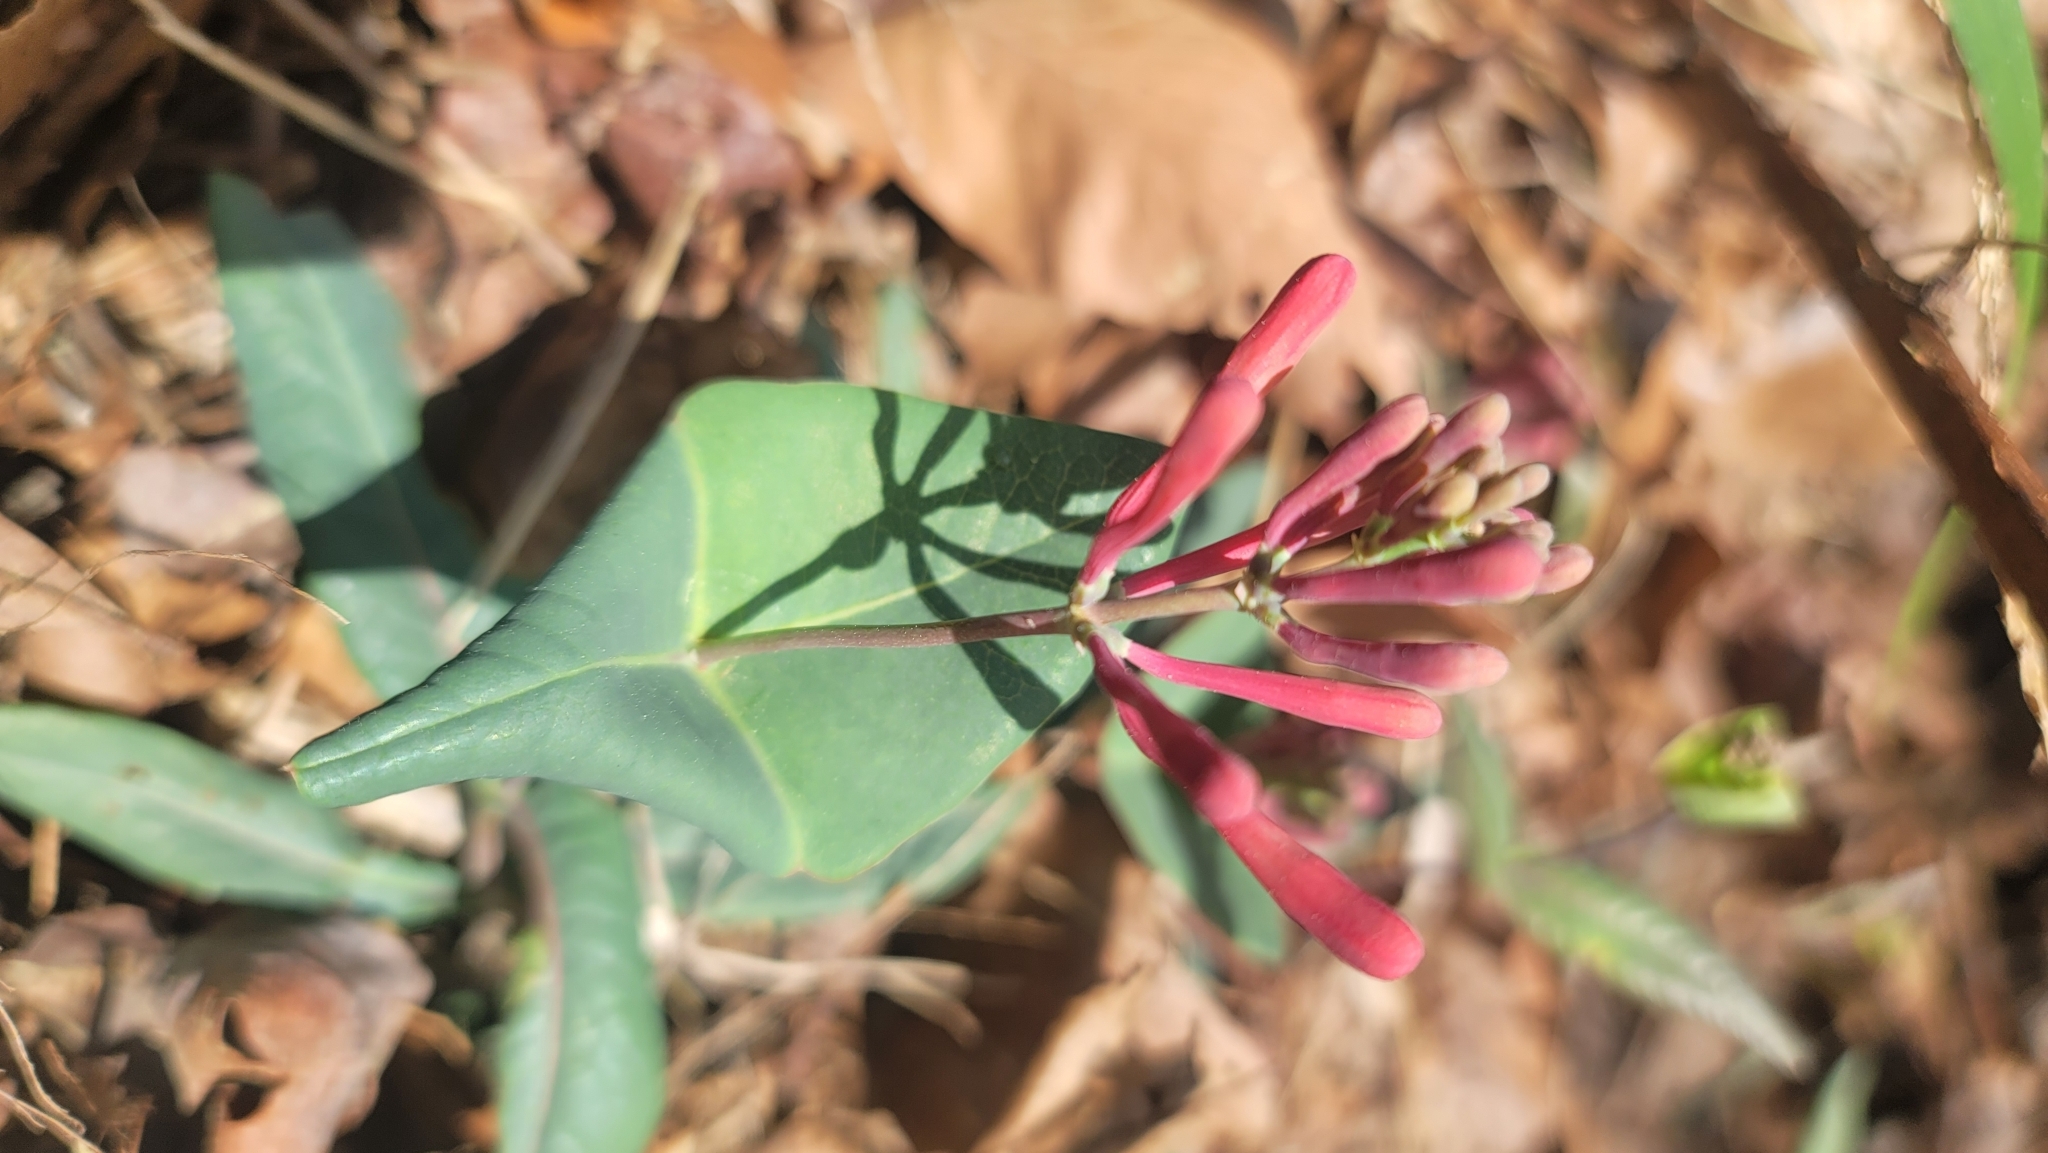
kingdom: Plantae
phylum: Tracheophyta
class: Magnoliopsida
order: Dipsacales
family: Caprifoliaceae
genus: Lonicera
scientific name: Lonicera sempervirens
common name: Coral honeysuckle
